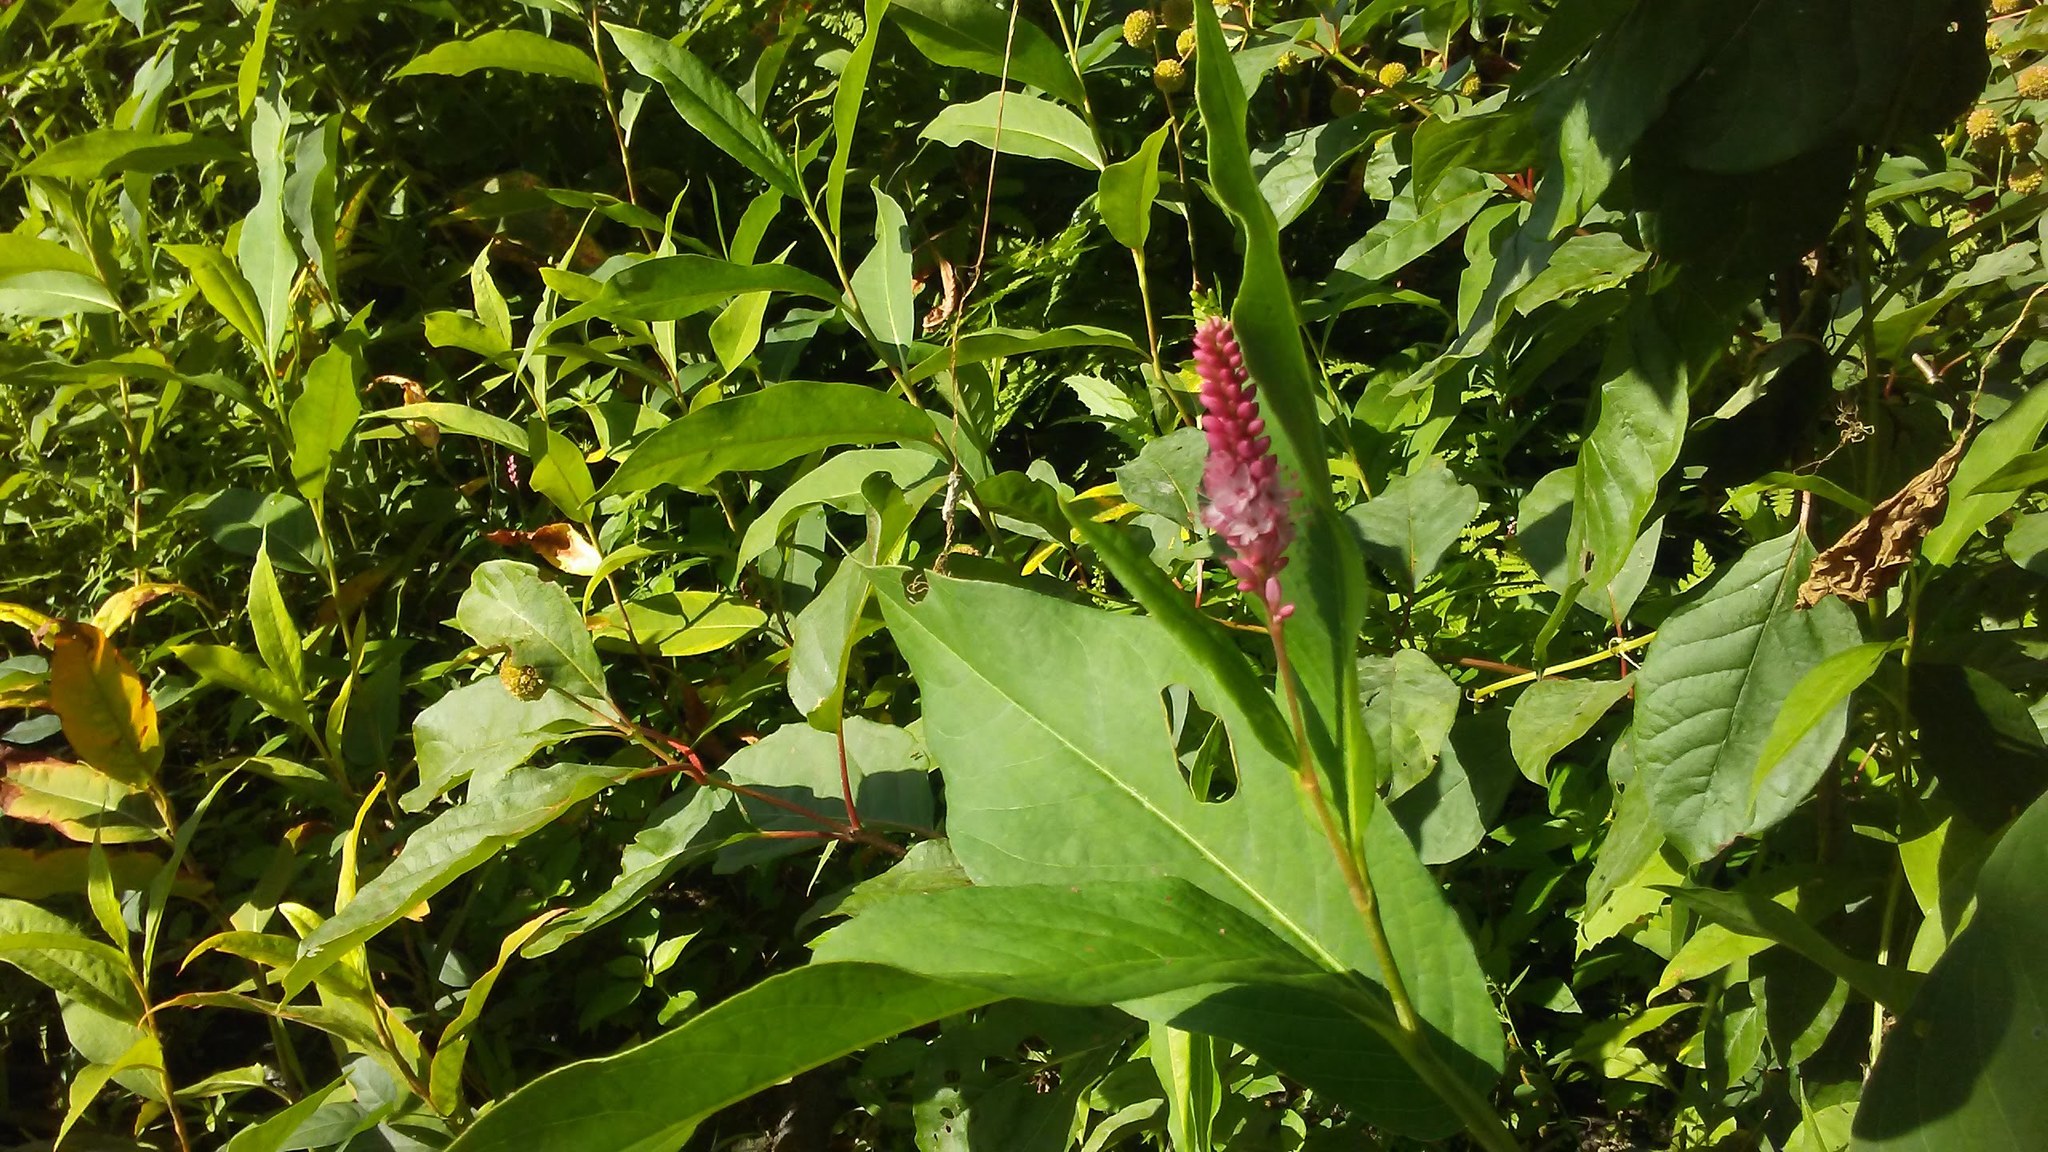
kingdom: Plantae
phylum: Tracheophyta
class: Magnoliopsida
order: Caryophyllales
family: Polygonaceae
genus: Persicaria
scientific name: Persicaria amphibia
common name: Amphibious bistort
